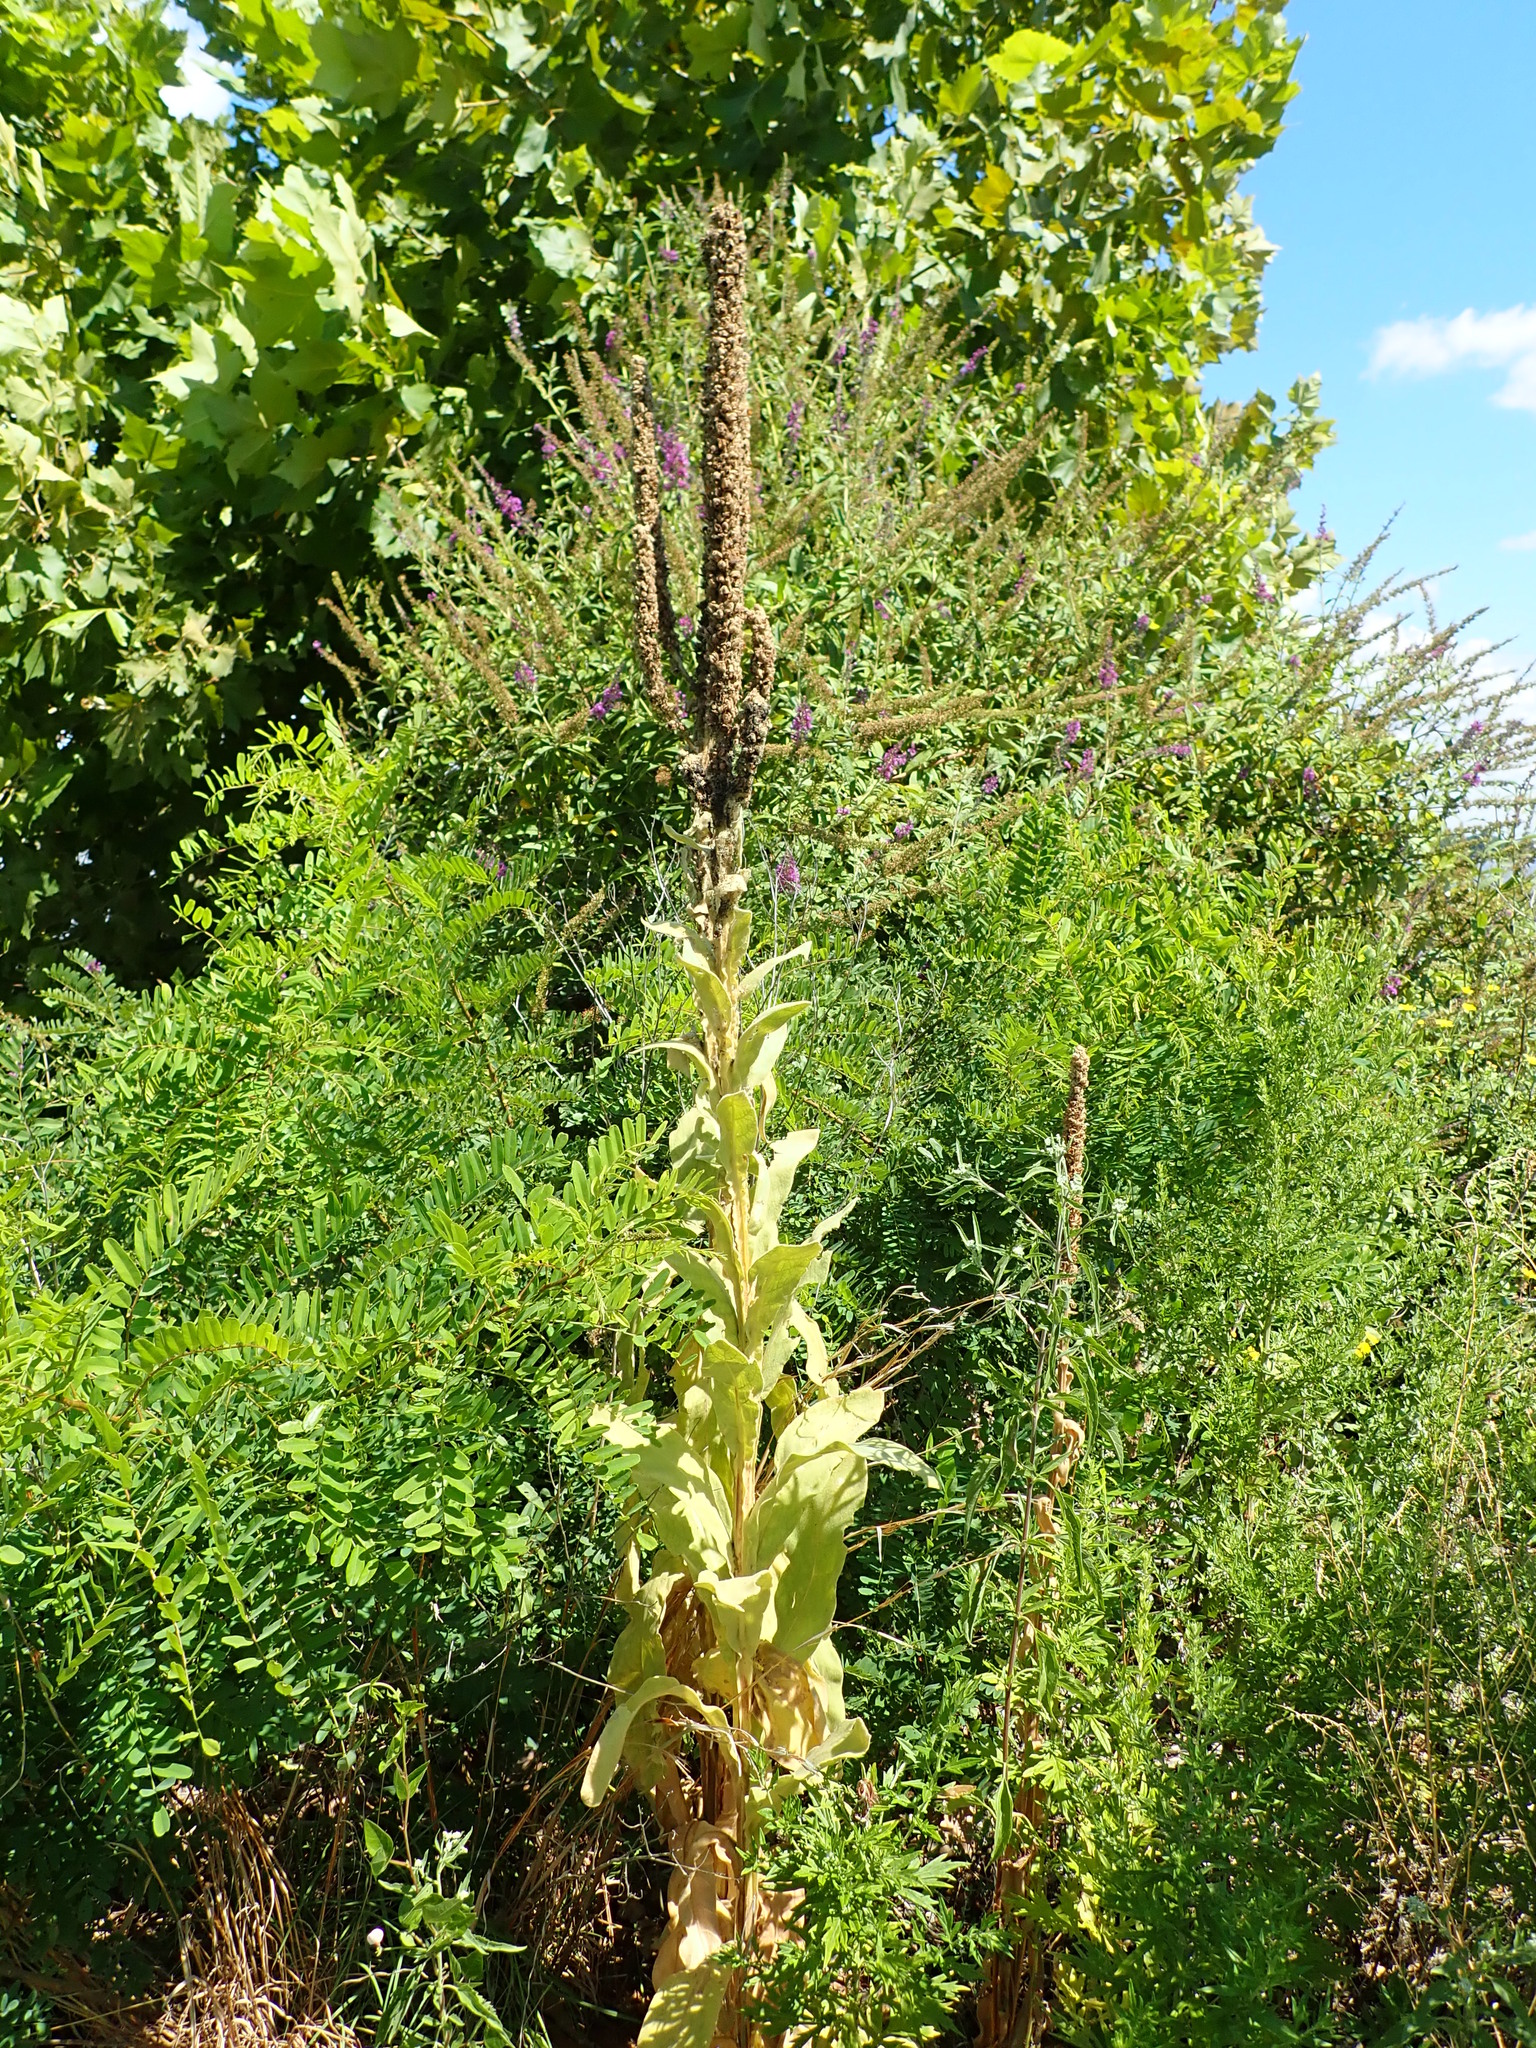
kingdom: Plantae
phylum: Tracheophyta
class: Magnoliopsida
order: Lamiales
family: Scrophulariaceae
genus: Verbascum
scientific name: Verbascum thapsus
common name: Common mullein
